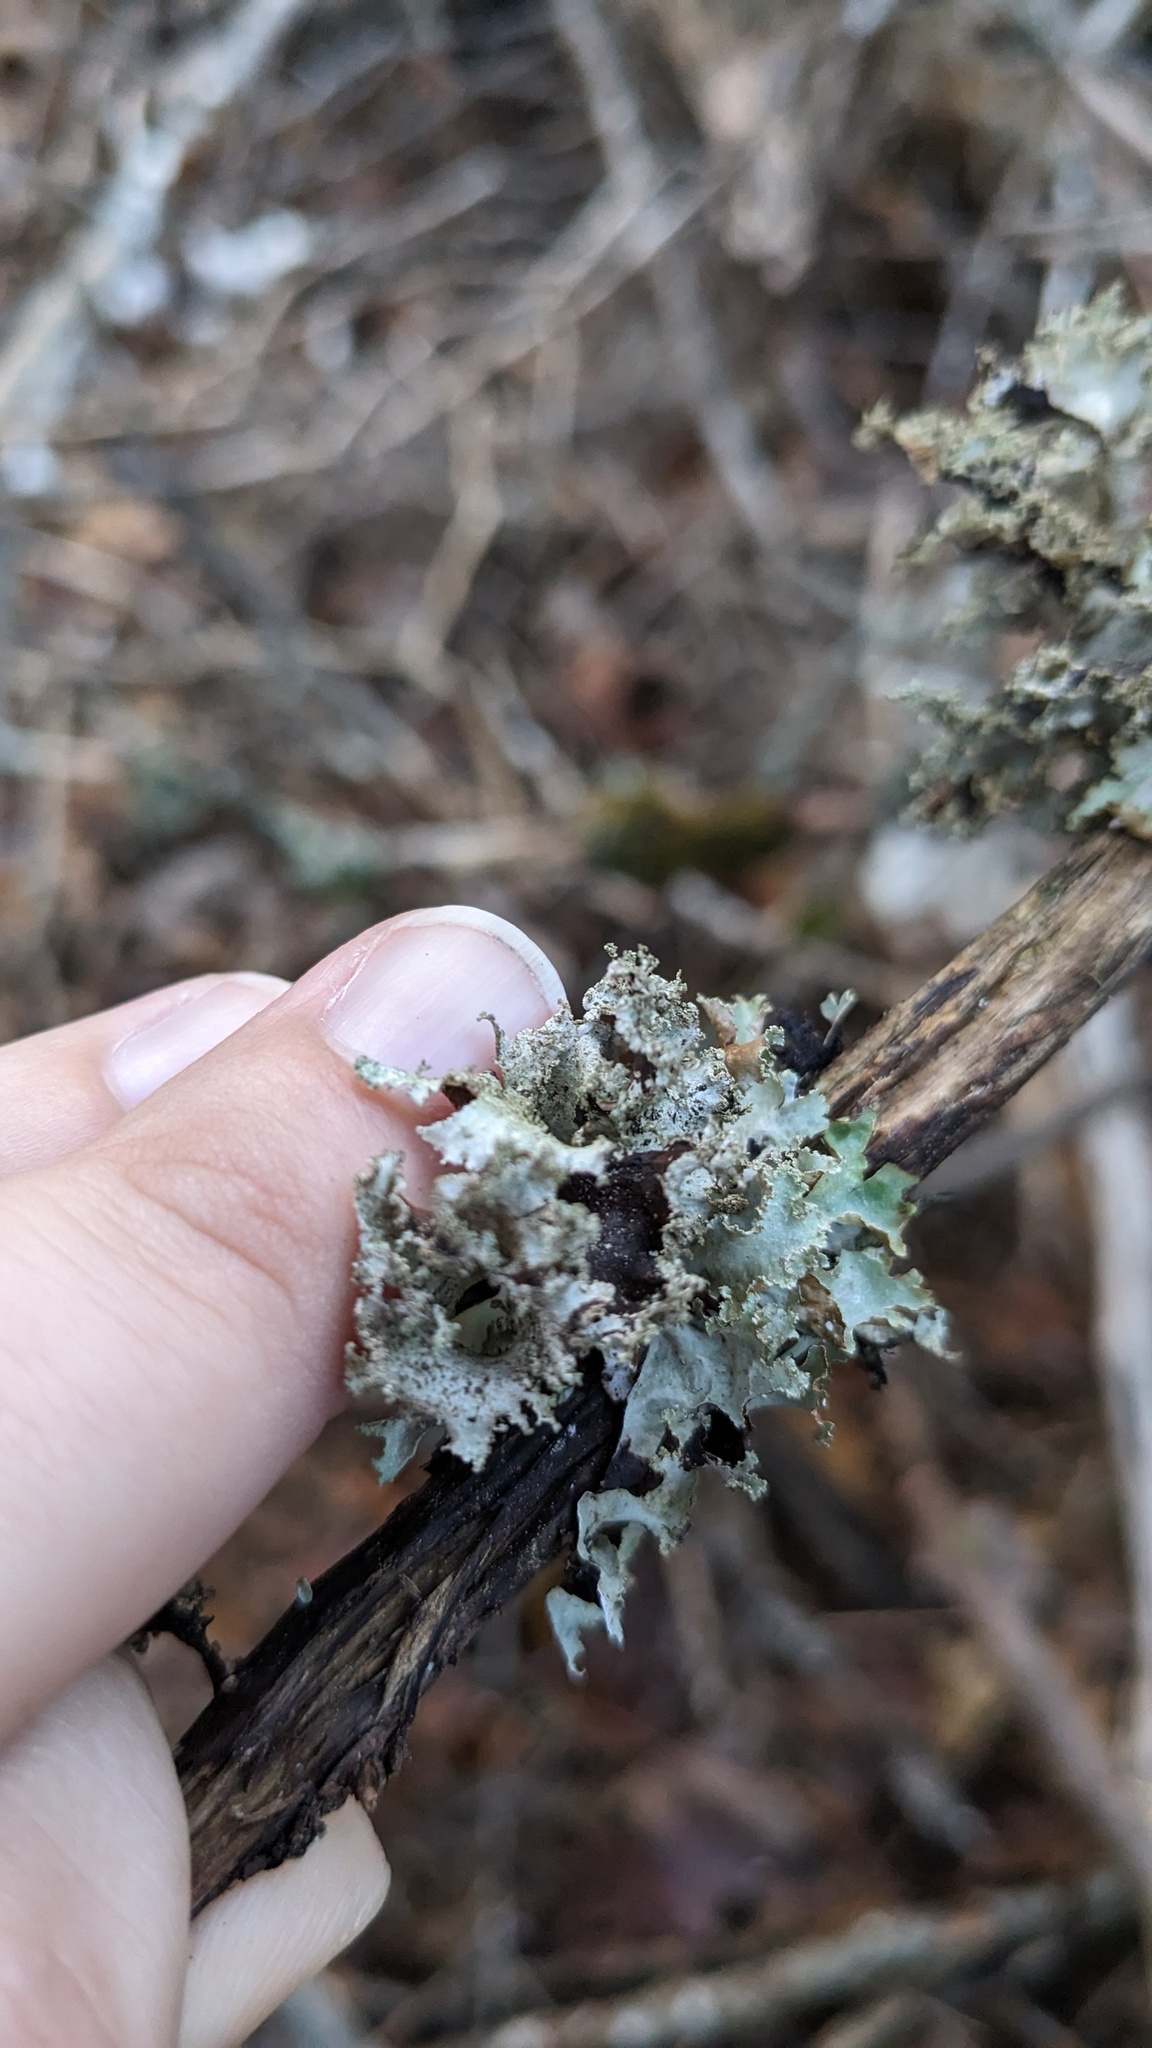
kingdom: Fungi
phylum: Ascomycota
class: Lecanoromycetes
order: Lecanorales
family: Parmeliaceae
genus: Platismatia
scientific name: Platismatia glauca
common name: Varied rag lichen
